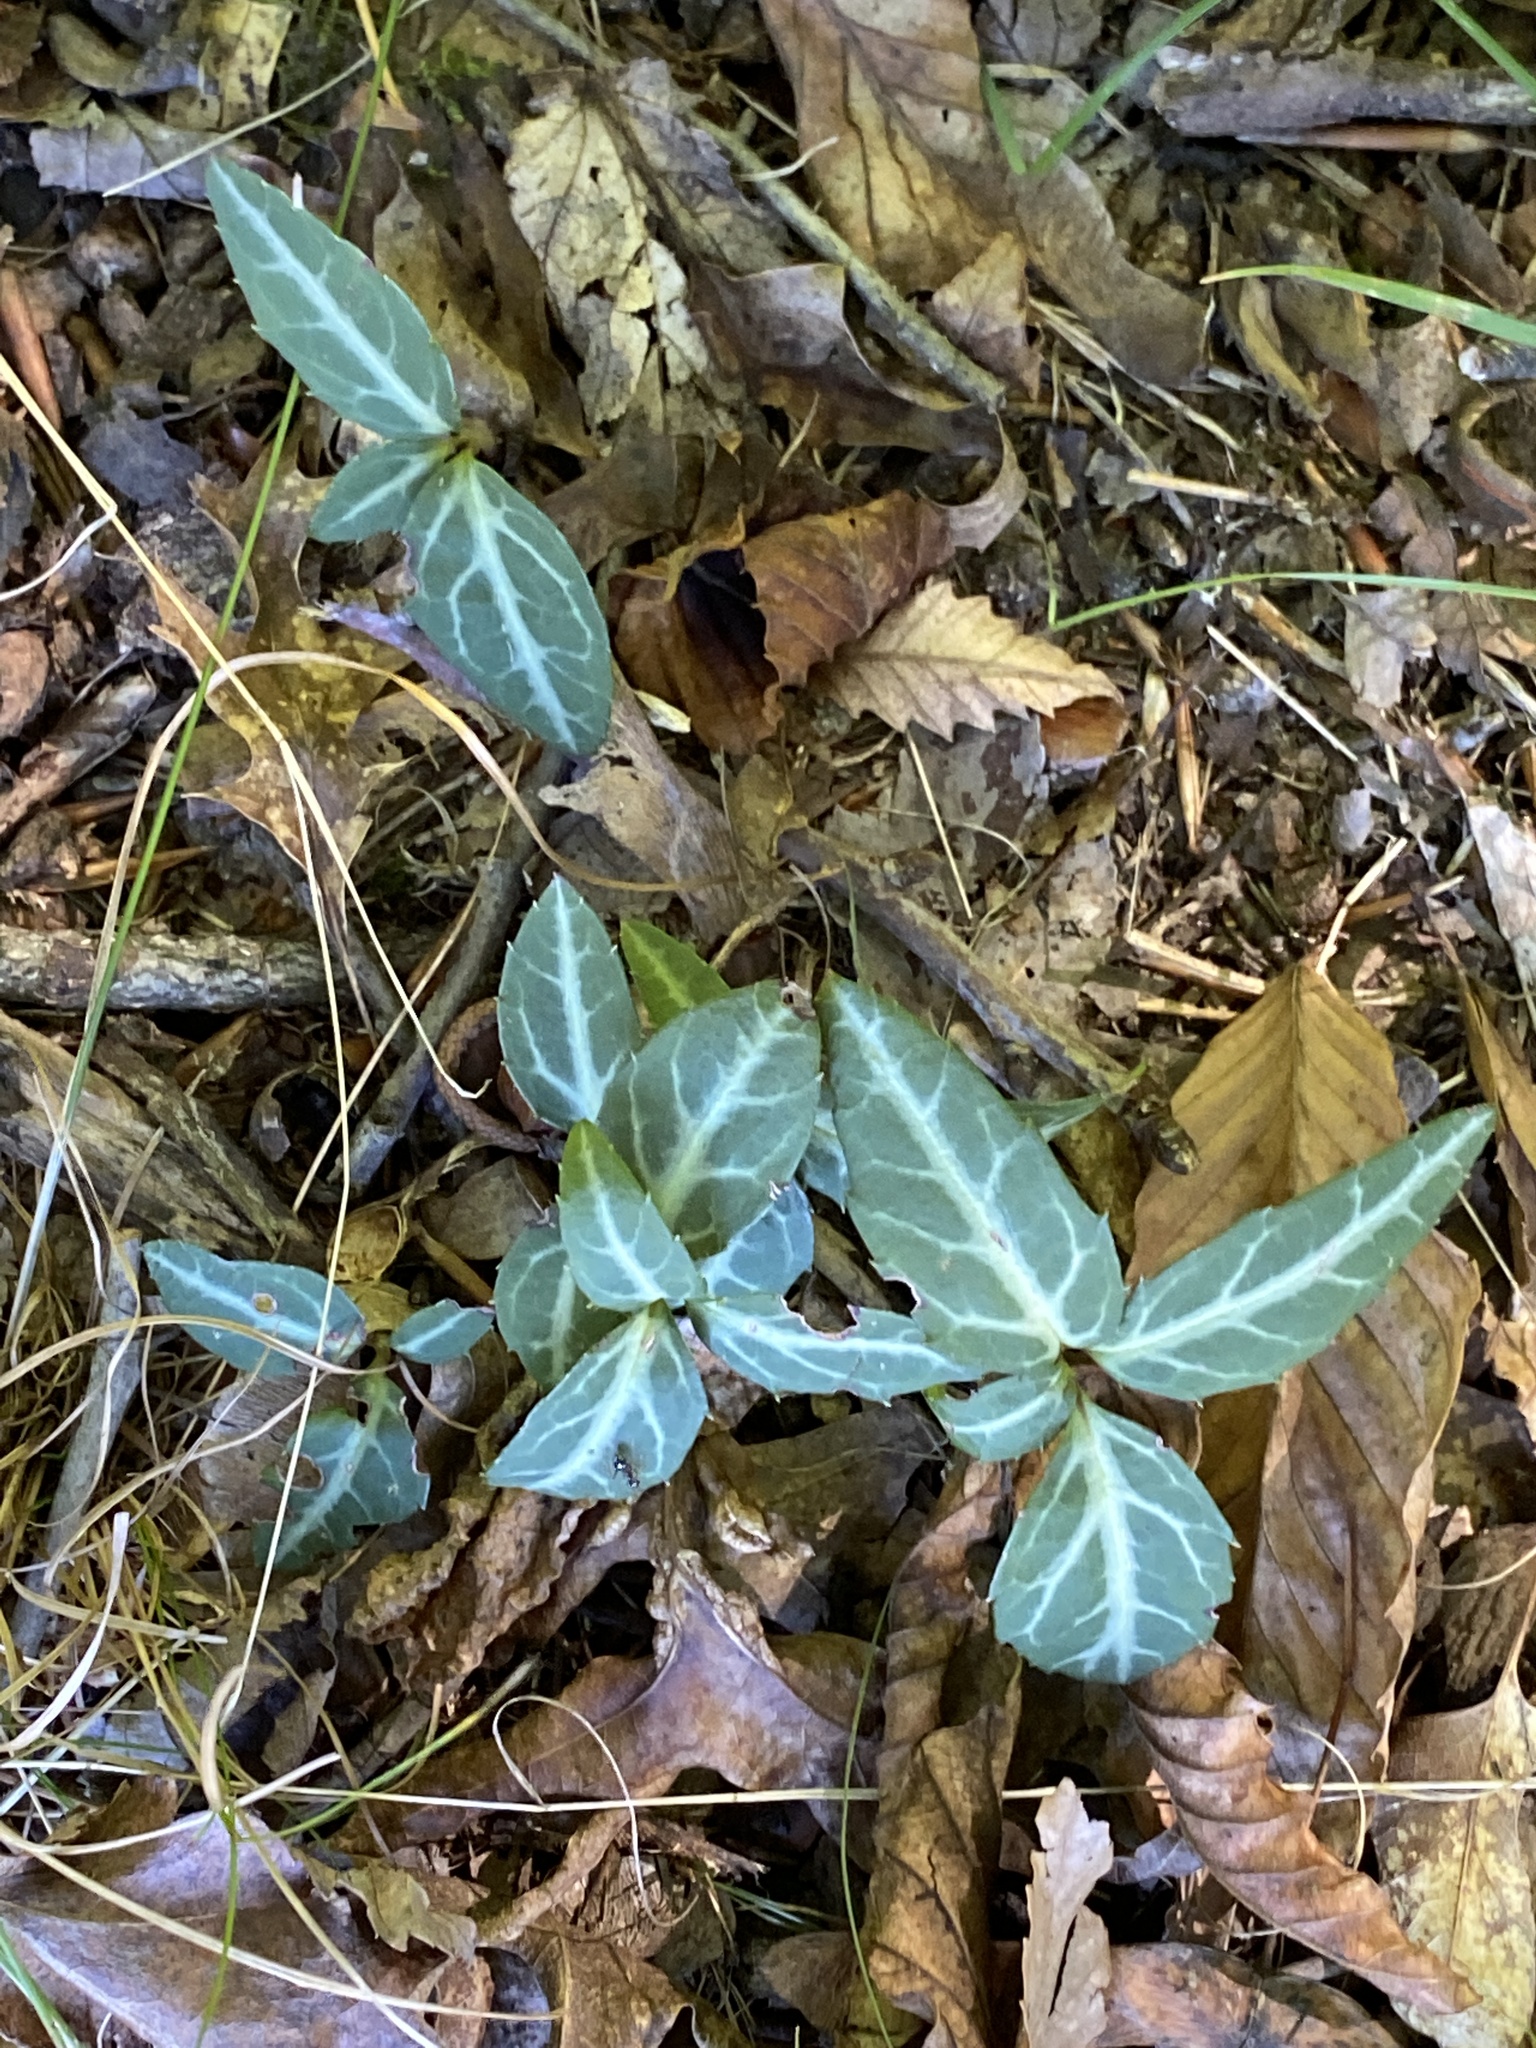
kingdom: Plantae
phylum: Tracheophyta
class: Magnoliopsida
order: Ericales
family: Ericaceae
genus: Chimaphila
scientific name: Chimaphila maculata
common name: Spotted pipsissewa
